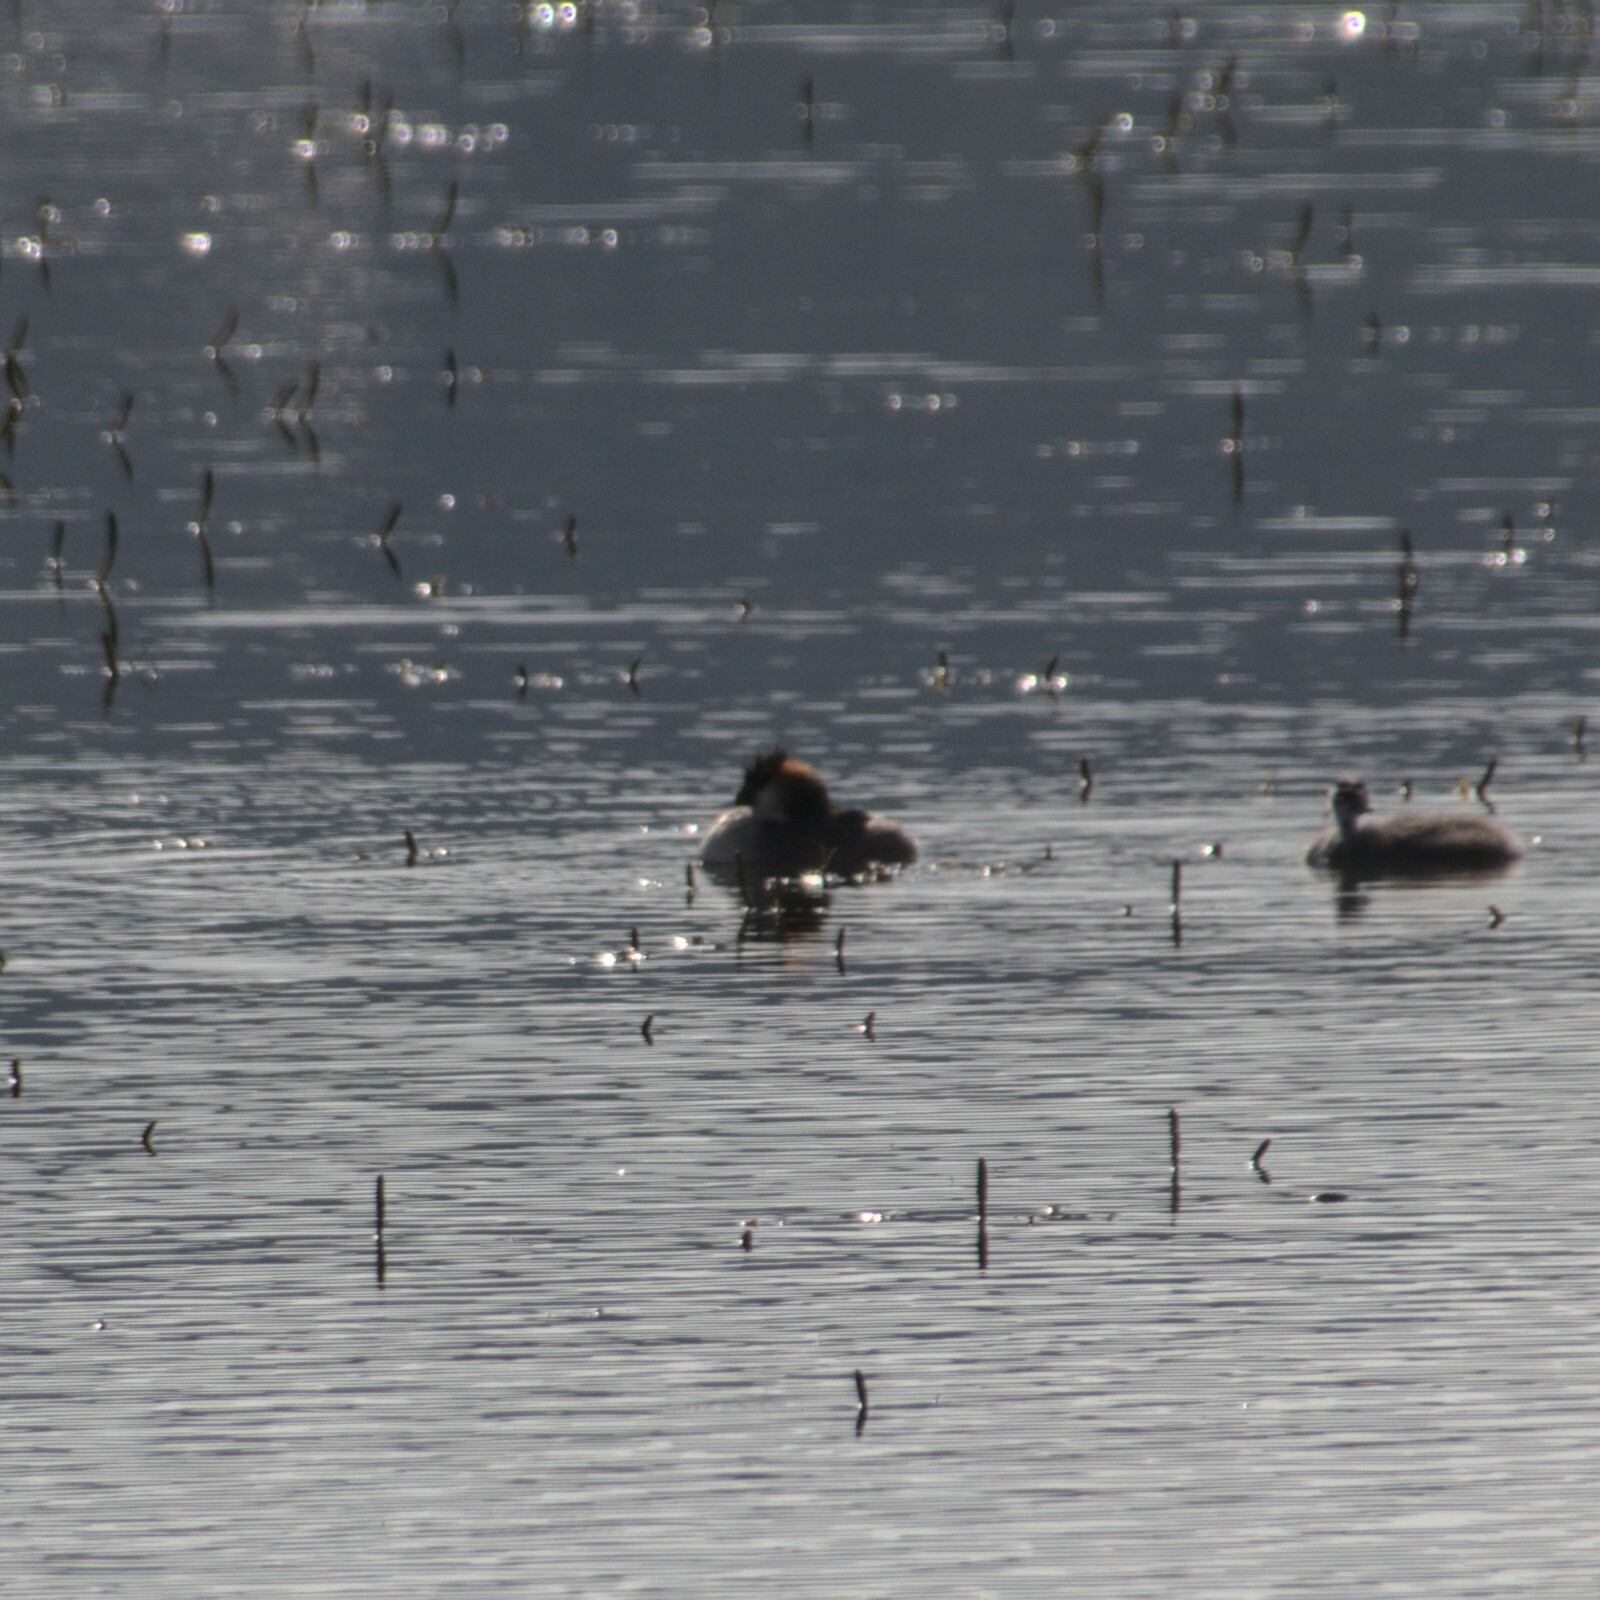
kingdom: Animalia
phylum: Chordata
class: Aves
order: Podicipediformes
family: Podicipedidae
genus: Podiceps
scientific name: Podiceps cristatus
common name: Great crested grebe
